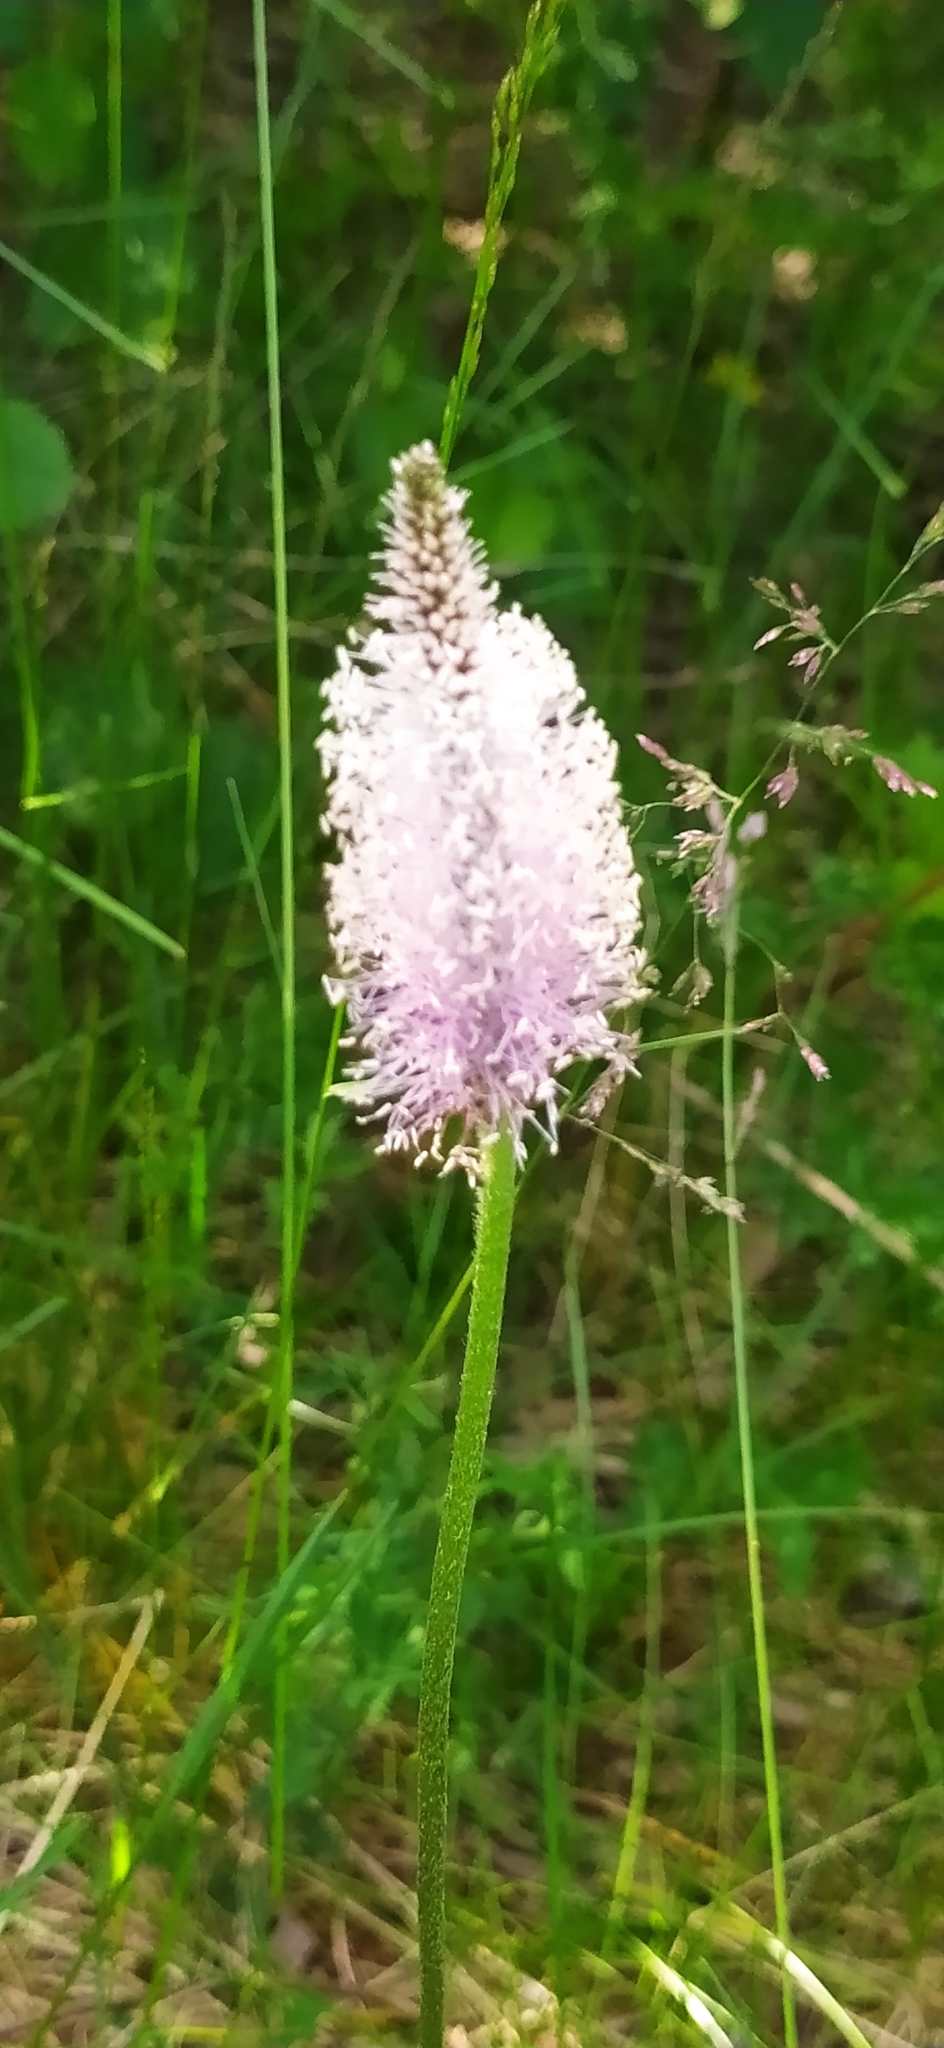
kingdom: Plantae
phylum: Tracheophyta
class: Magnoliopsida
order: Lamiales
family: Plantaginaceae
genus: Plantago
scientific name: Plantago media
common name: Hoary plantain
